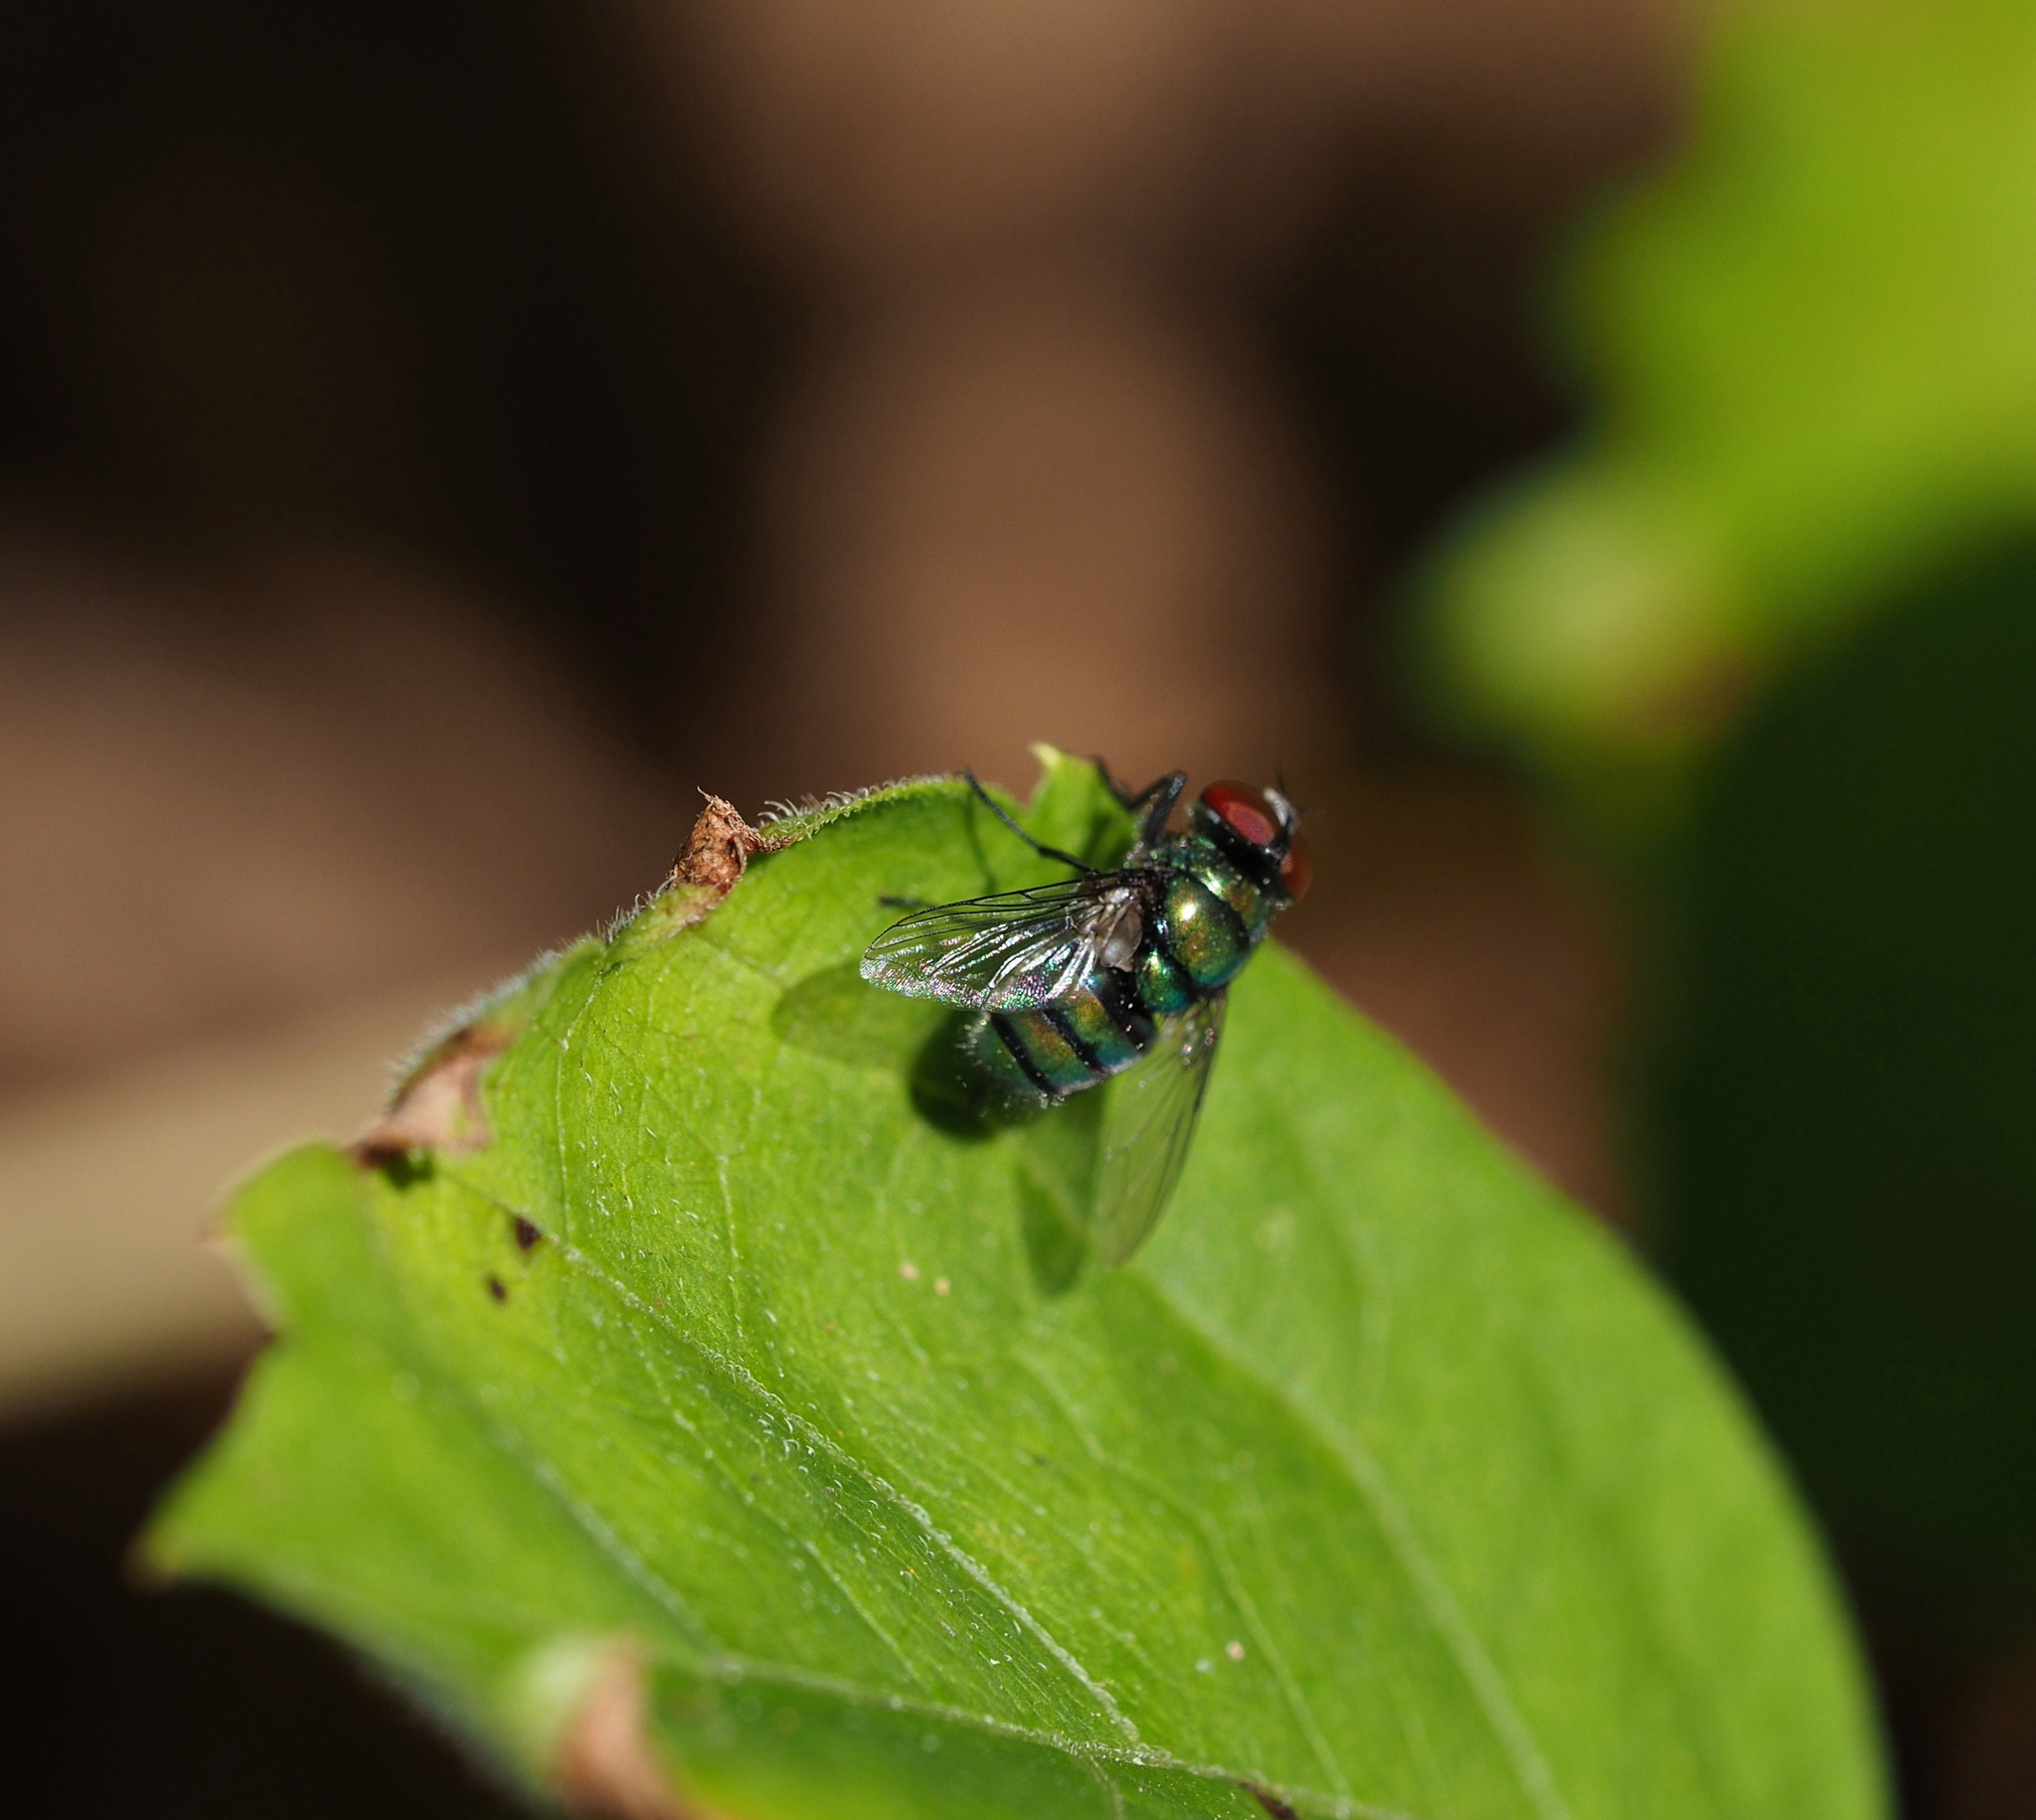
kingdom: Animalia
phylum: Arthropoda
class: Insecta
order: Diptera
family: Calliphoridae
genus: Chrysomya
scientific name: Chrysomya albiceps
